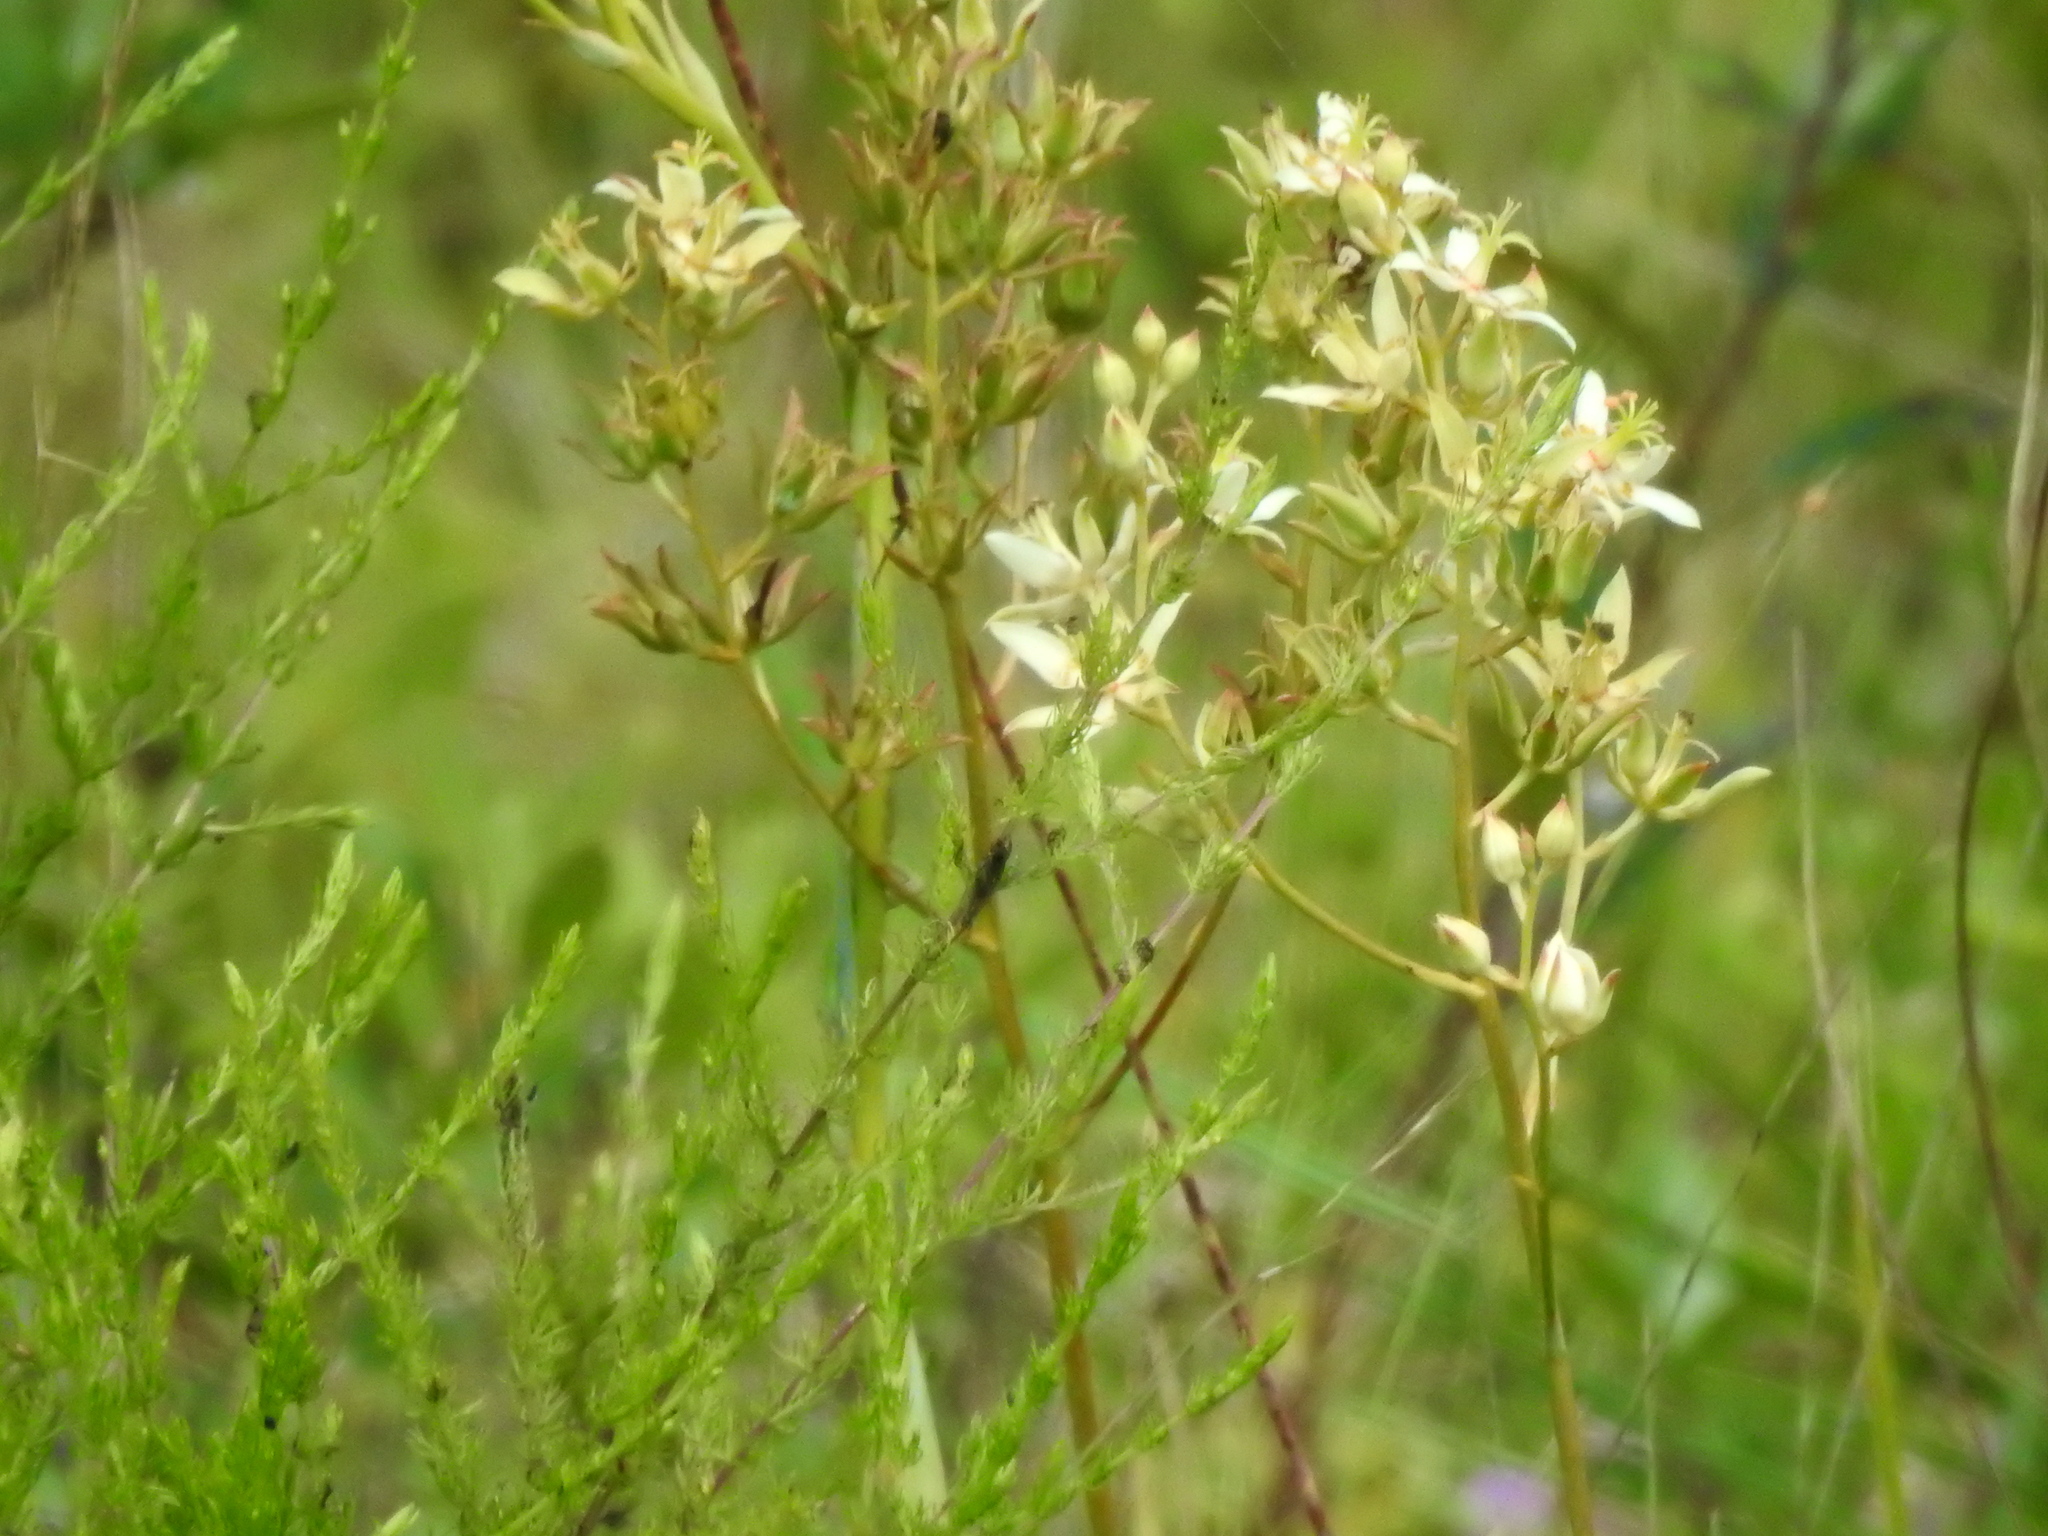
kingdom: Plantae
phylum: Tracheophyta
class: Liliopsida
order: Liliales
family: Melanthiaceae
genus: Zigadenus
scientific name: Zigadenus glaberrimus
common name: Sandbog death camas
